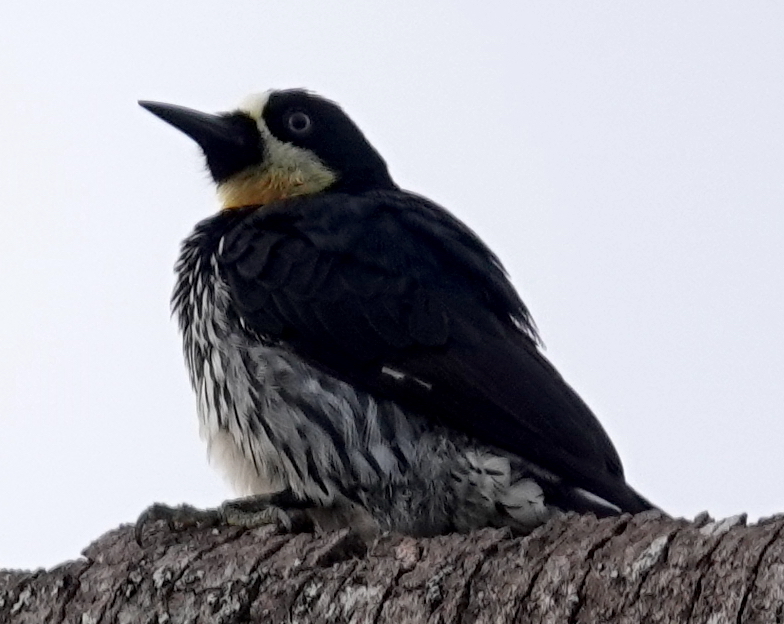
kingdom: Animalia
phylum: Chordata
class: Aves
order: Piciformes
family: Picidae
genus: Melanerpes
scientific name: Melanerpes formicivorus
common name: Acorn woodpecker
